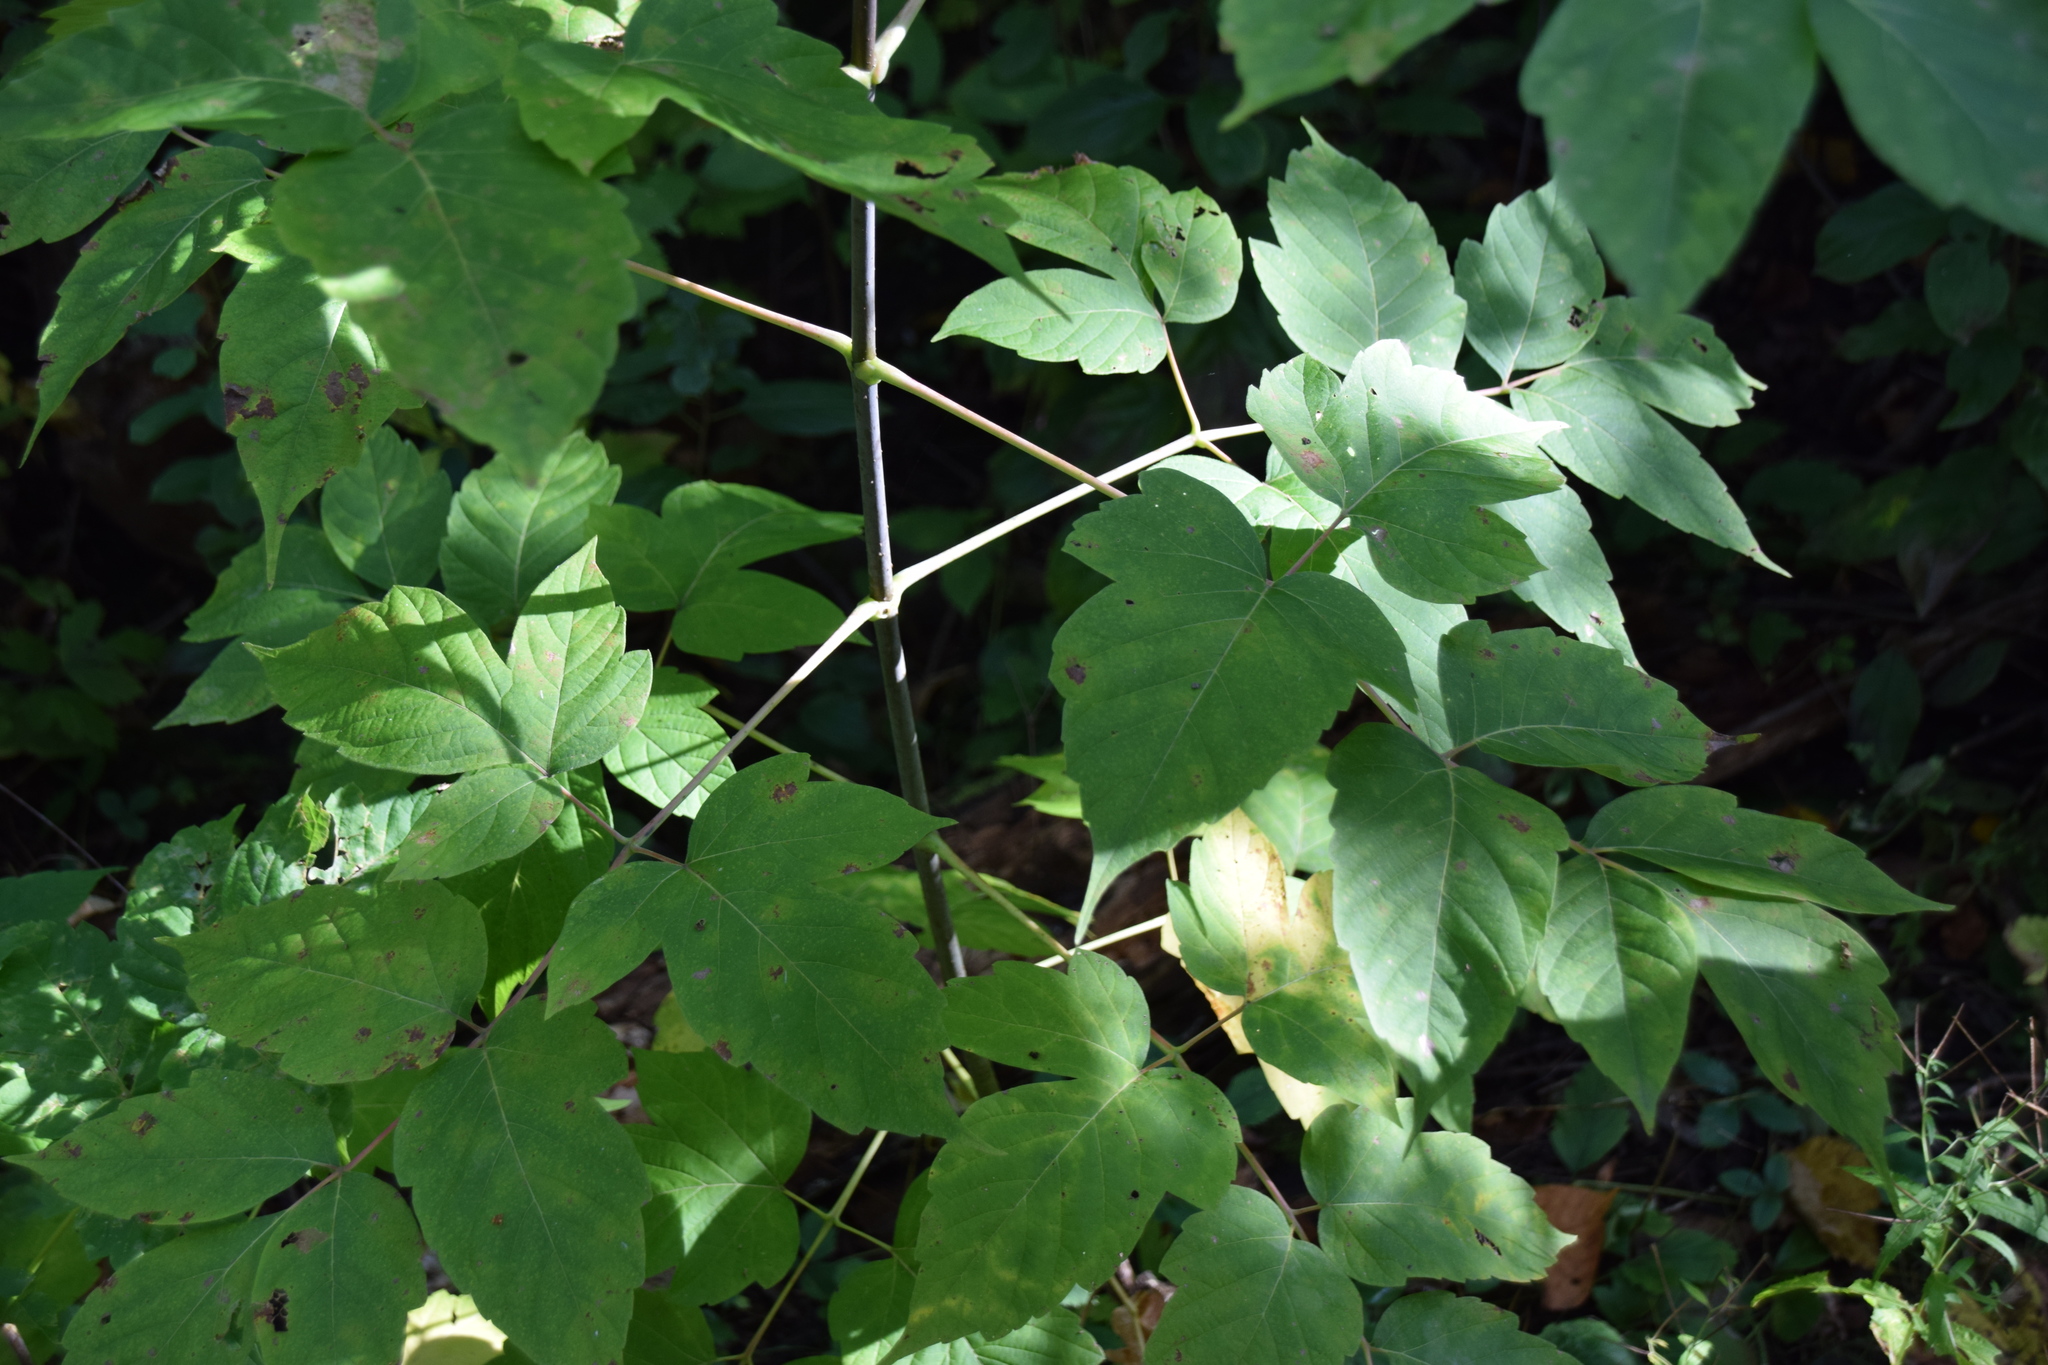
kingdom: Plantae
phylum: Tracheophyta
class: Magnoliopsida
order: Sapindales
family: Sapindaceae
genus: Acer
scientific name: Acer negundo
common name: Ashleaf maple
